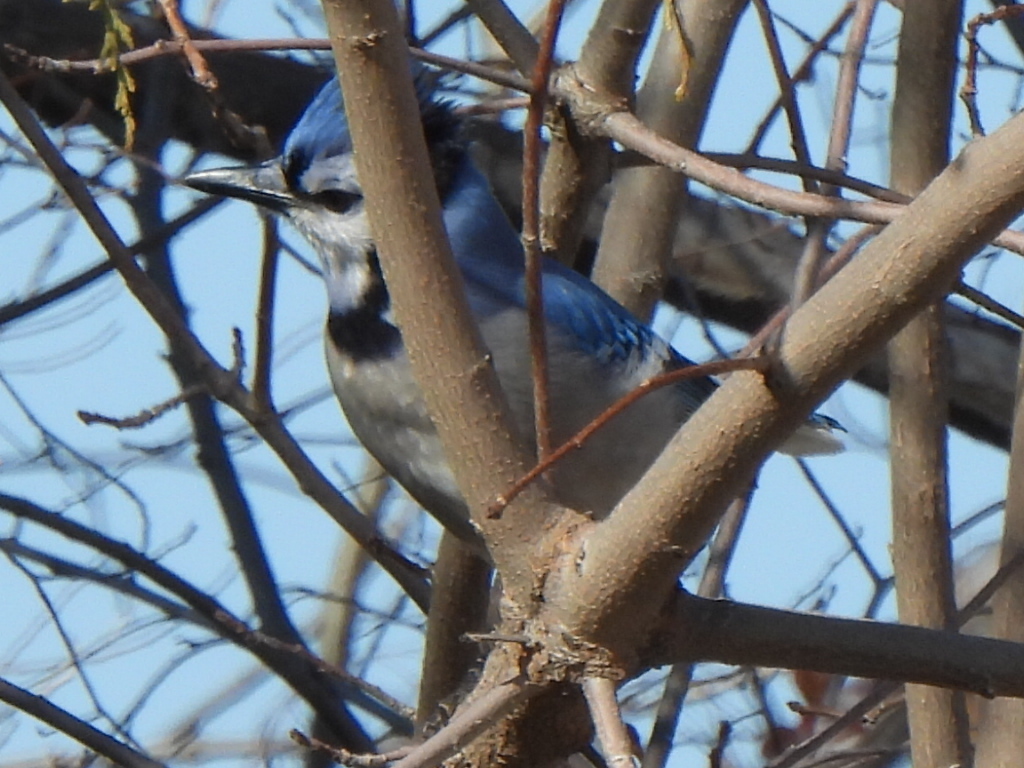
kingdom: Animalia
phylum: Chordata
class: Aves
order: Passeriformes
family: Corvidae
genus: Cyanocitta
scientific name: Cyanocitta cristata
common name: Blue jay
